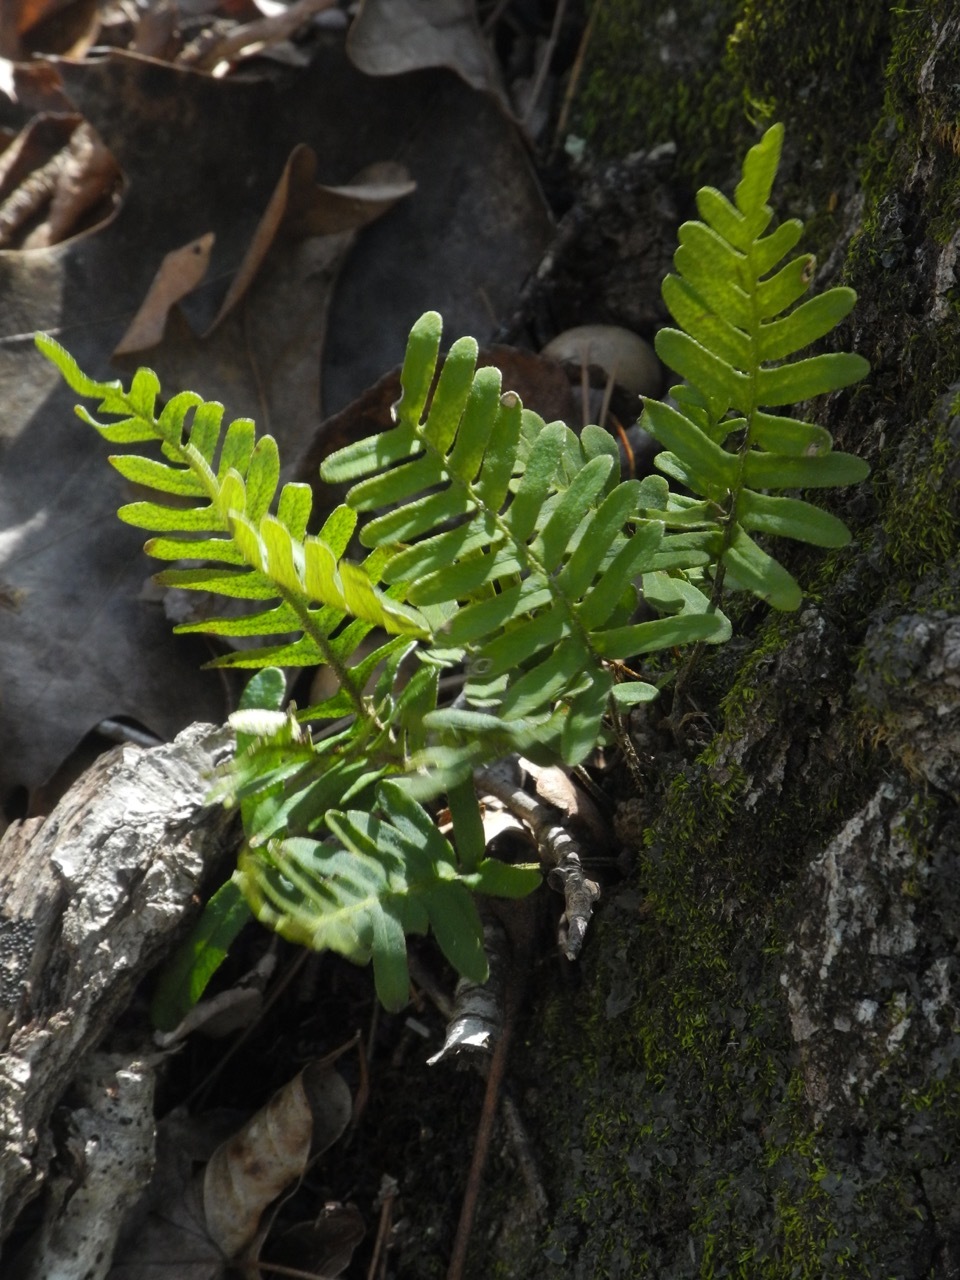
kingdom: Plantae
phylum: Tracheophyta
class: Polypodiopsida
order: Polypodiales
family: Polypodiaceae
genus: Pleopeltis
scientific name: Pleopeltis michauxiana
